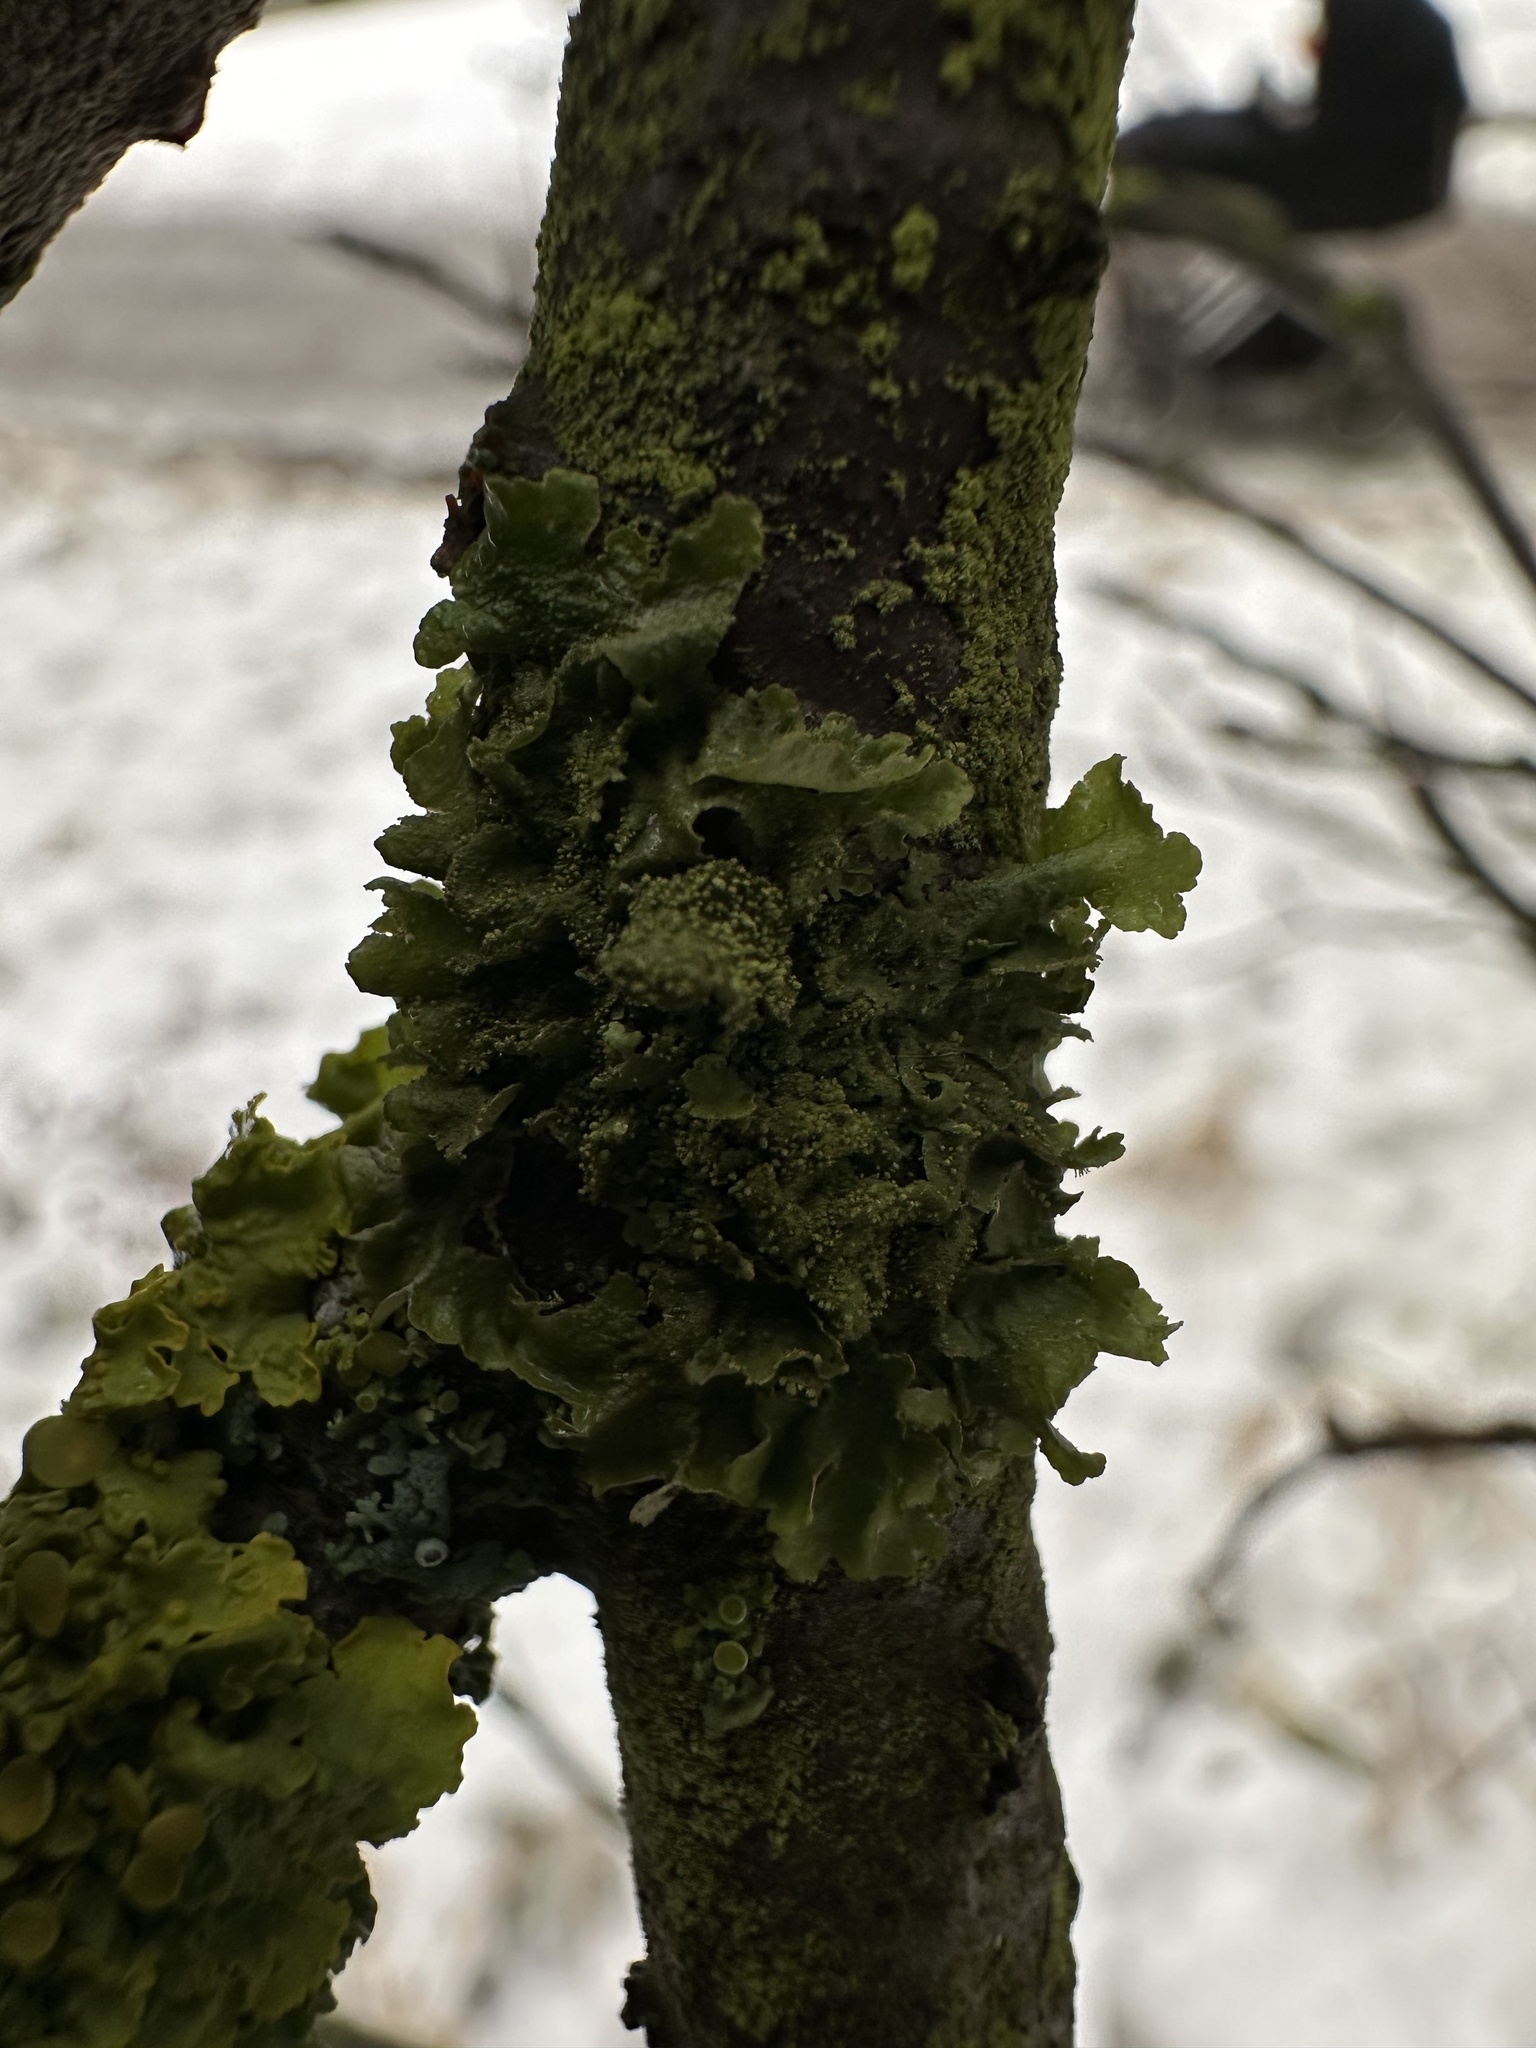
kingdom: Fungi
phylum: Ascomycota
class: Lecanoromycetes
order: Lecanorales
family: Parmeliaceae
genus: Melanohalea
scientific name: Melanohalea exasperatula
